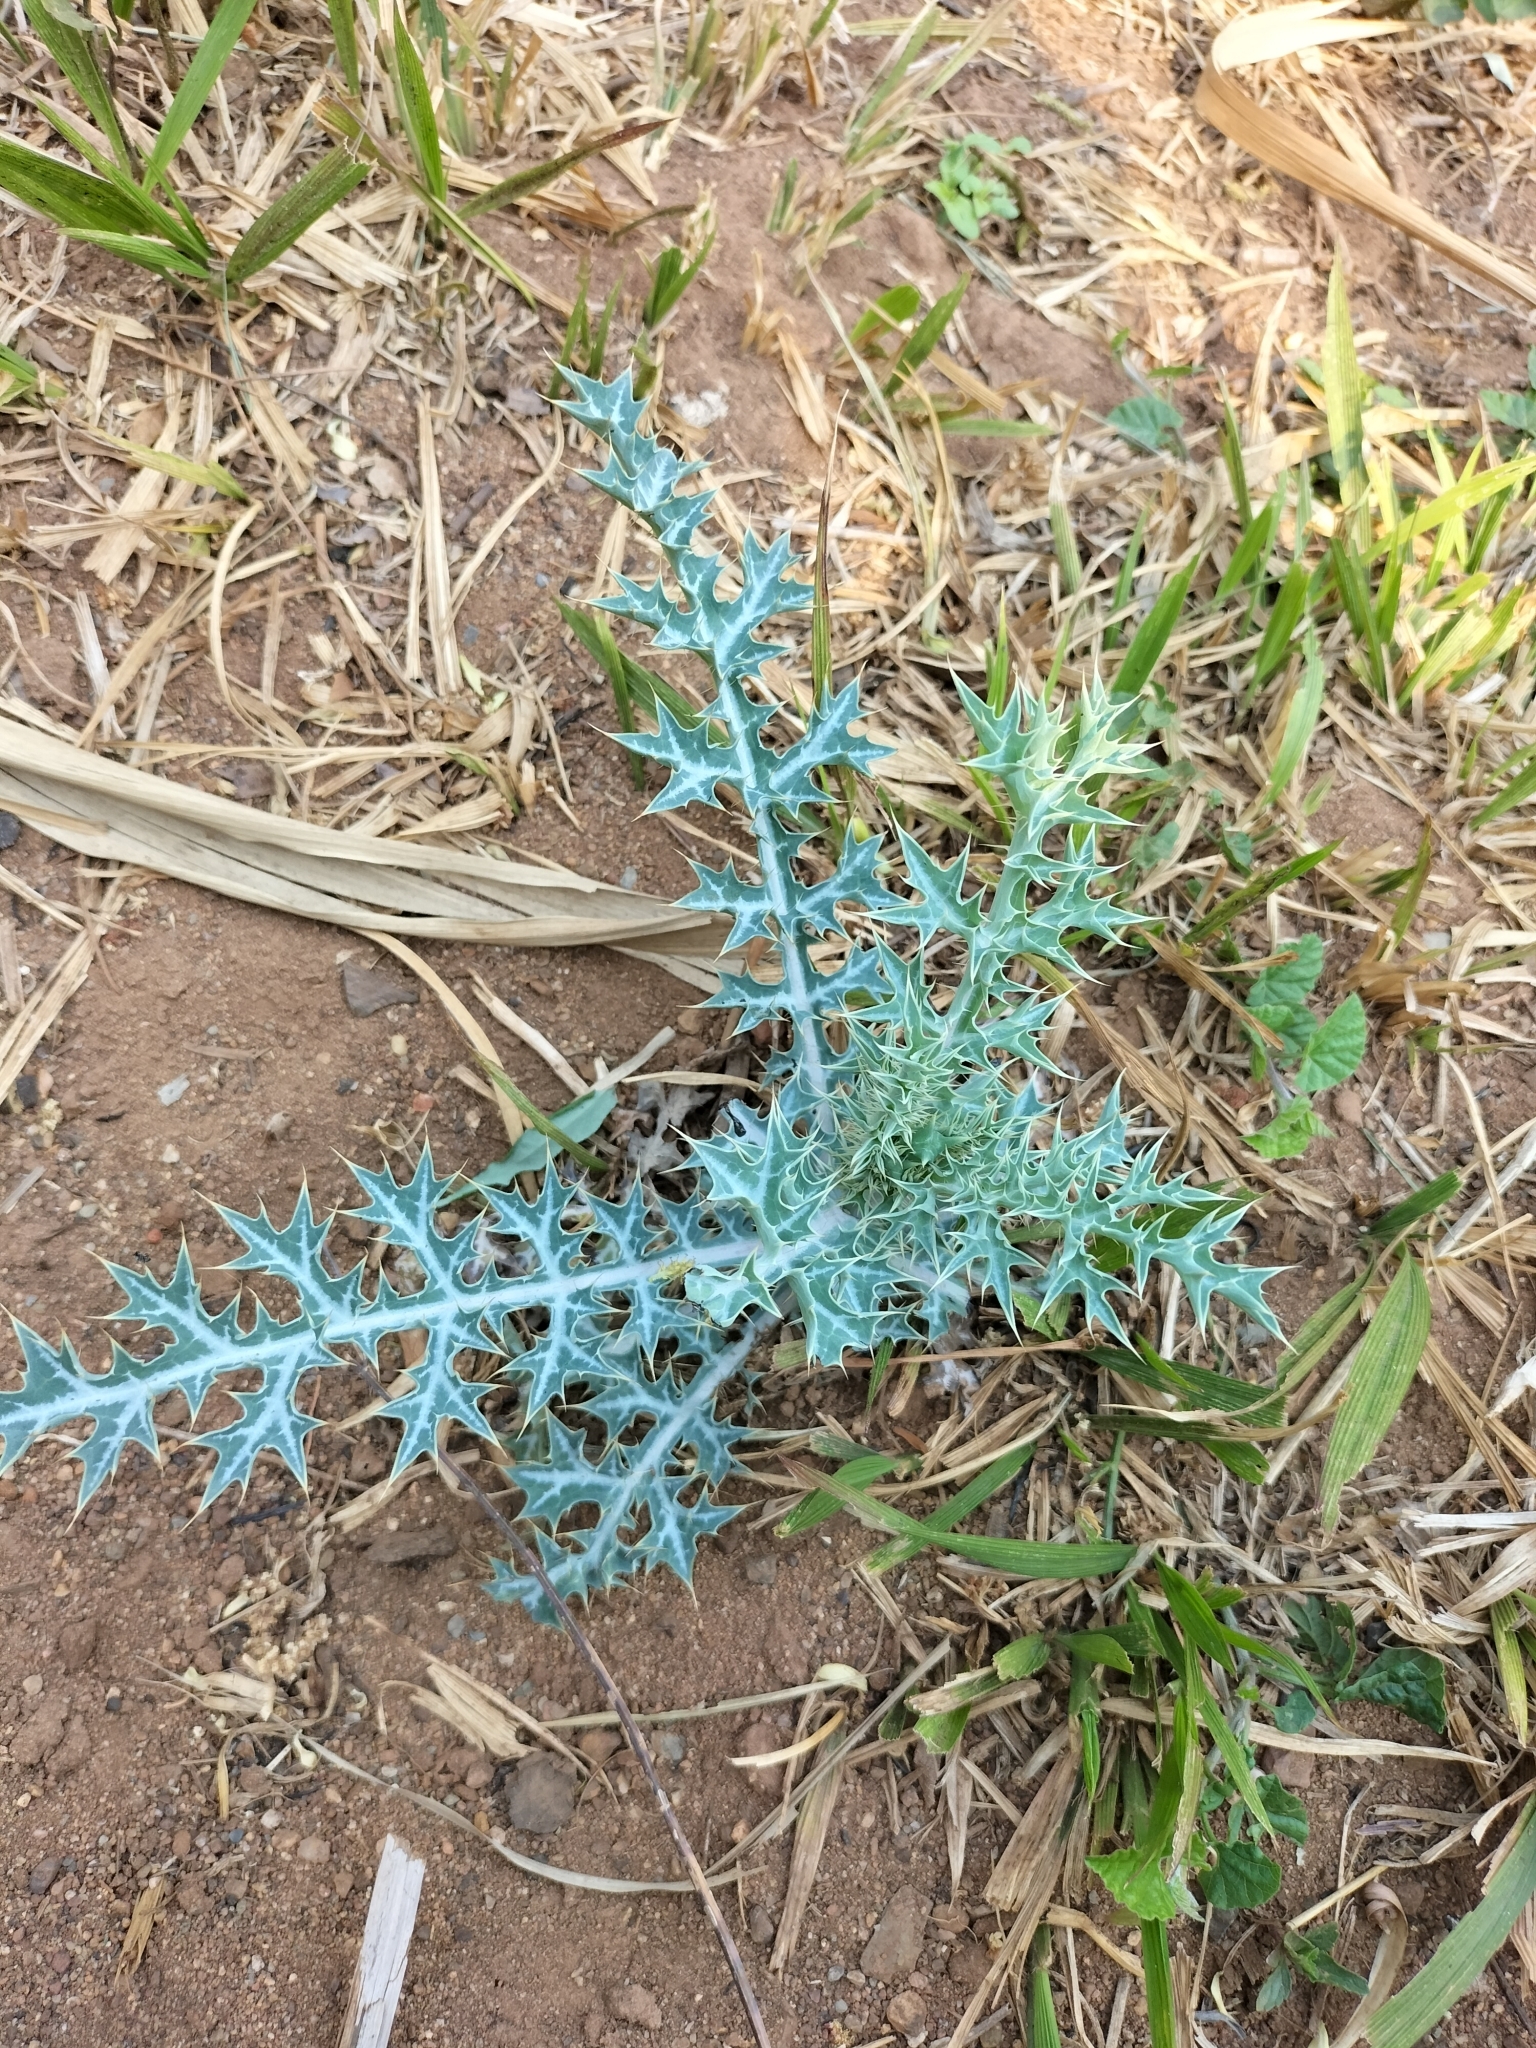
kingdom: Plantae
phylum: Tracheophyta
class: Magnoliopsida
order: Ranunculales
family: Papaveraceae
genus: Argemone
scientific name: Argemone ochroleuca
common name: White-flower mexican-poppy
